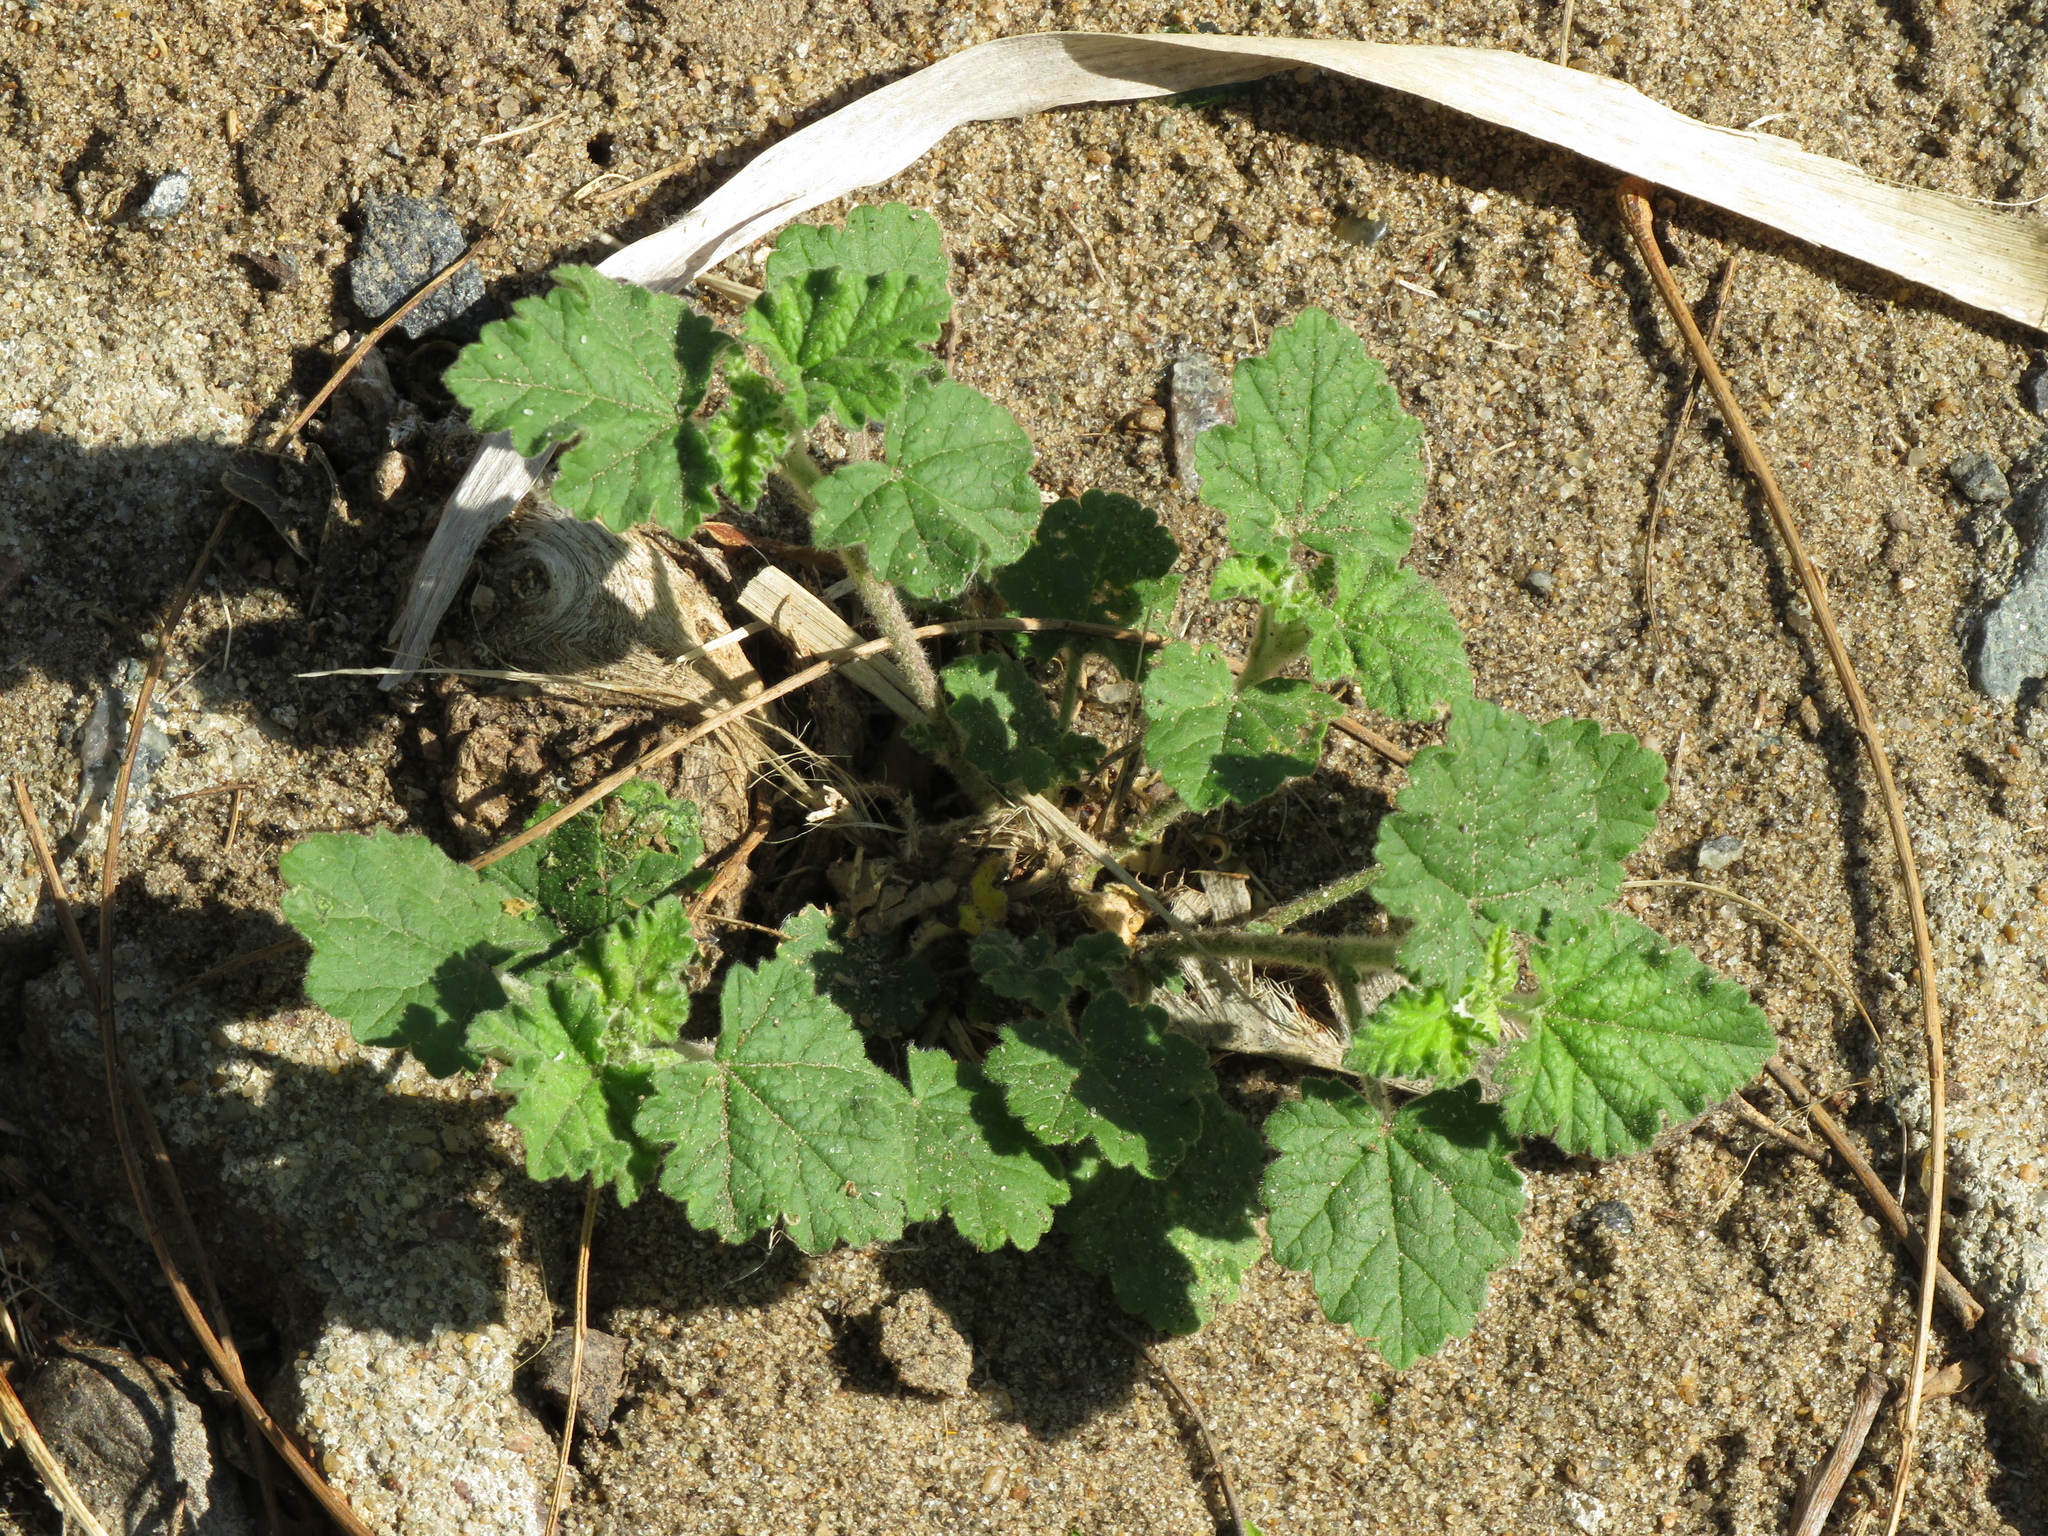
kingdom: Plantae
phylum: Tracheophyta
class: Magnoliopsida
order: Malvales
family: Malvaceae
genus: Sphaeralcea
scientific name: Sphaeralcea bonariensis
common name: Latin globemallow
